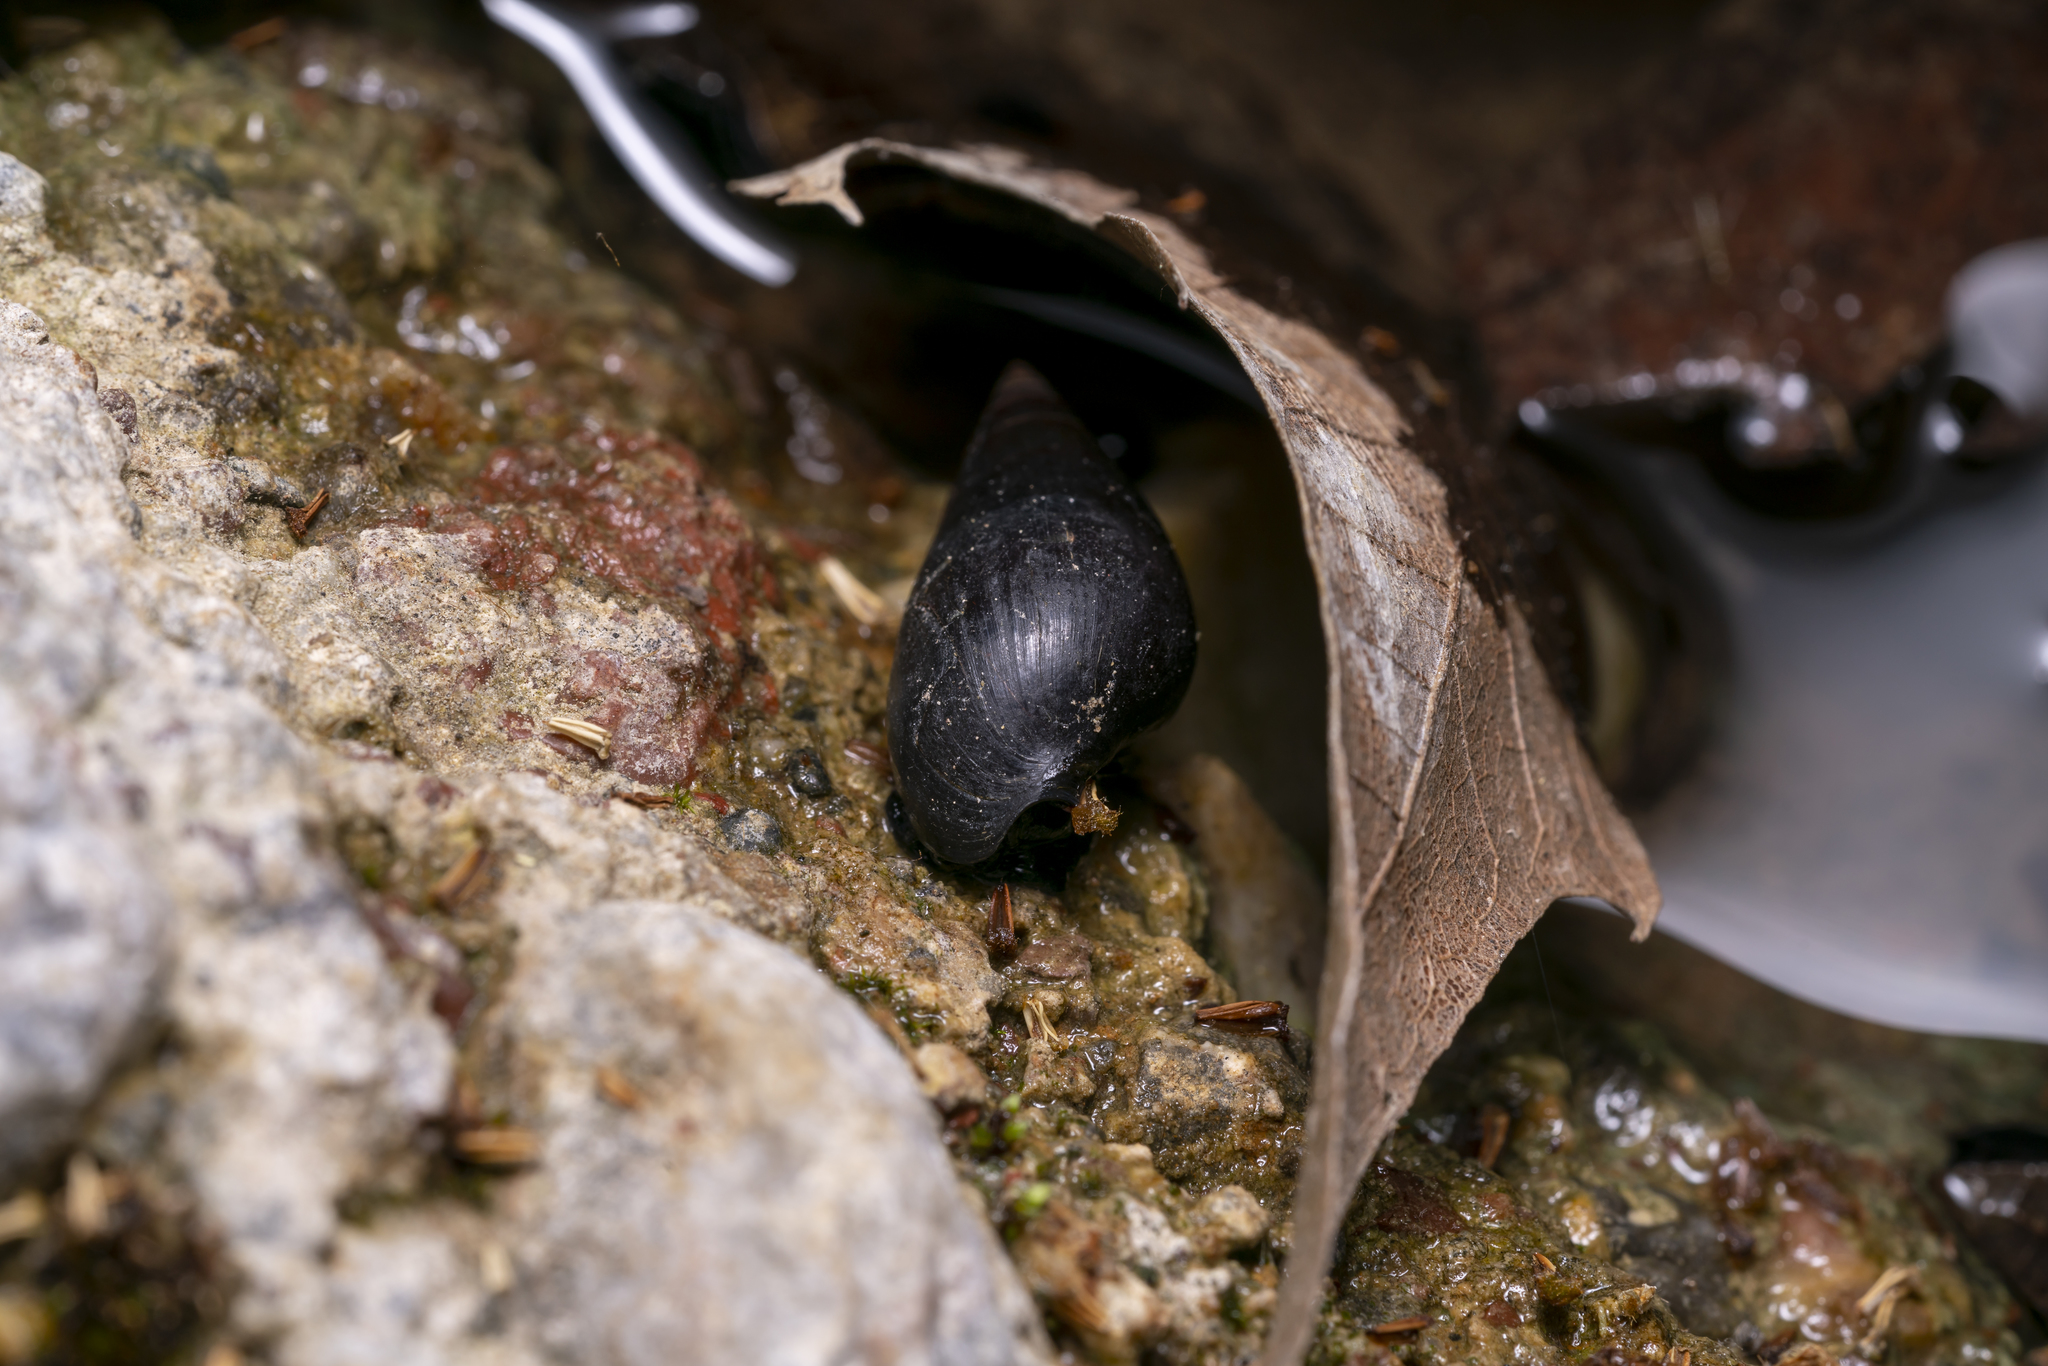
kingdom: Animalia
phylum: Mollusca
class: Gastropoda
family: Melanopsidae
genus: Melanopsis
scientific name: Melanopsis wagneri
